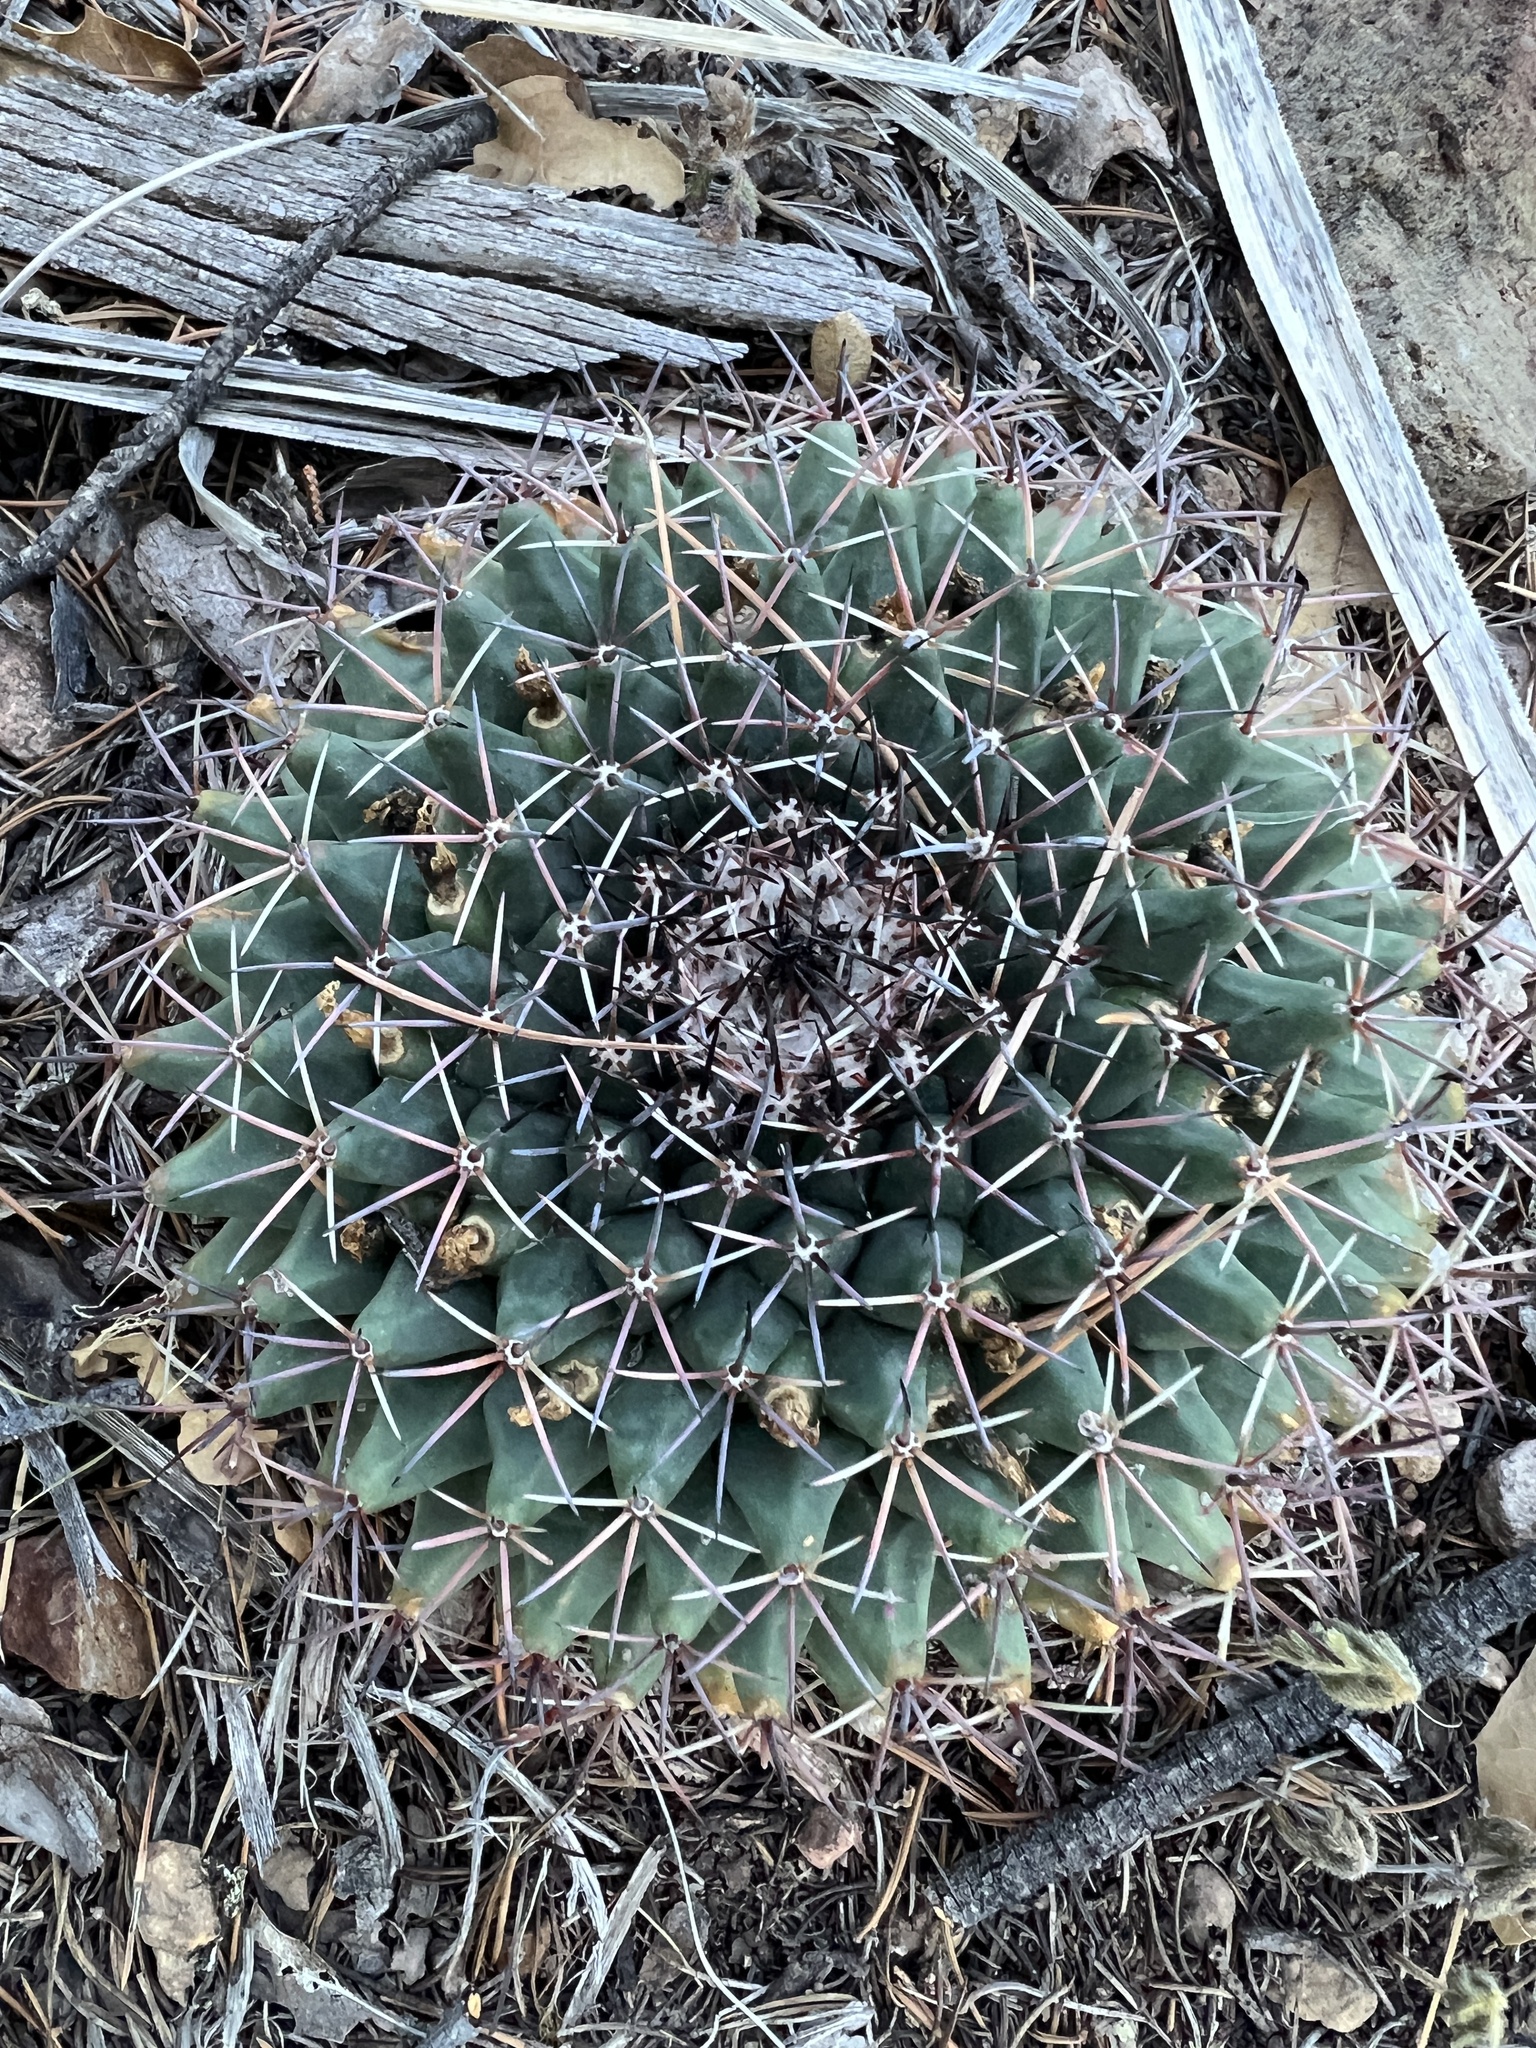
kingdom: Plantae
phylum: Tracheophyta
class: Magnoliopsida
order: Caryophyllales
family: Cactaceae
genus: Mammillaria
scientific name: Mammillaria heyderi
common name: Little nipple cactus
